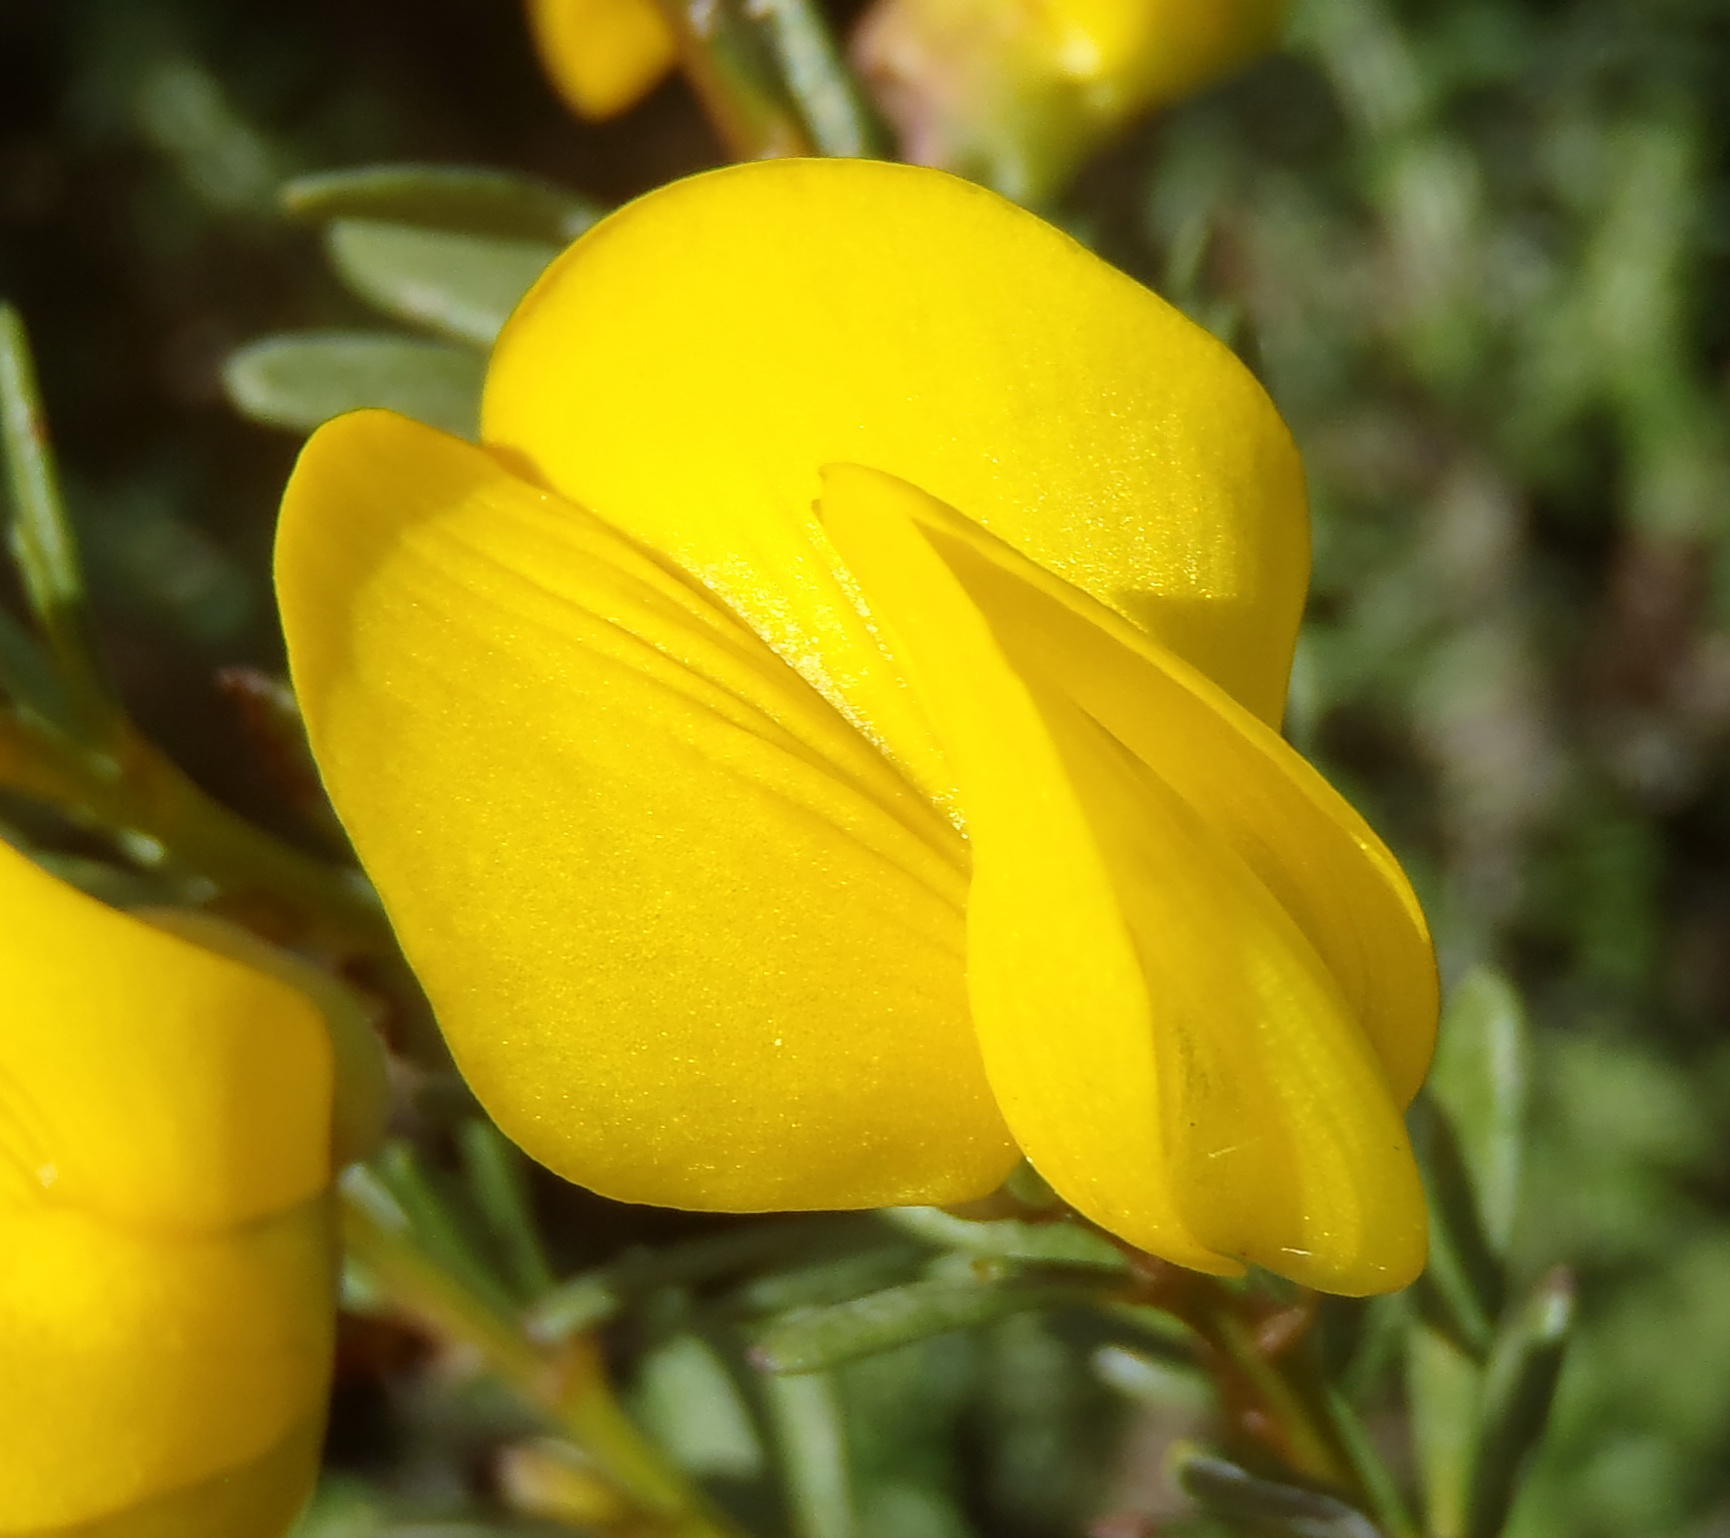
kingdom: Plantae
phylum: Tracheophyta
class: Magnoliopsida
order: Fabales
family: Fabaceae
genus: Cyclopia
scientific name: Cyclopia subternata
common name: Honeybush tea
